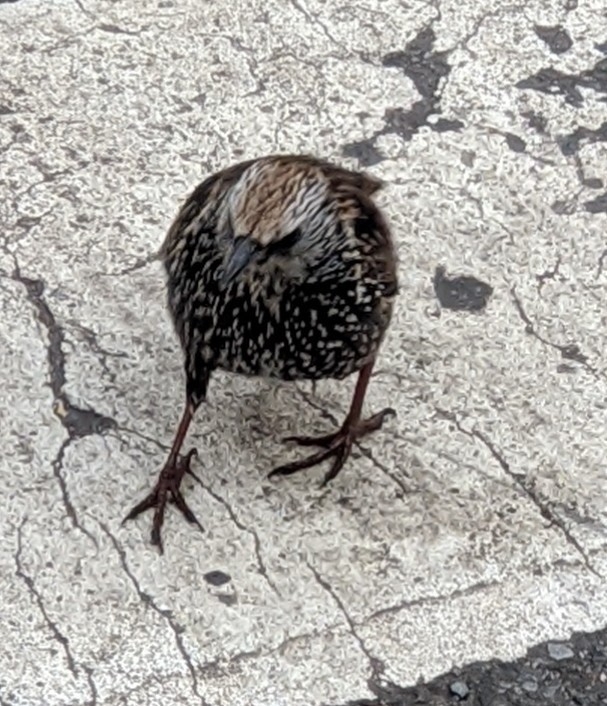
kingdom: Animalia
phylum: Chordata
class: Aves
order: Passeriformes
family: Sturnidae
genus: Sturnus
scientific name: Sturnus vulgaris
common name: Common starling
